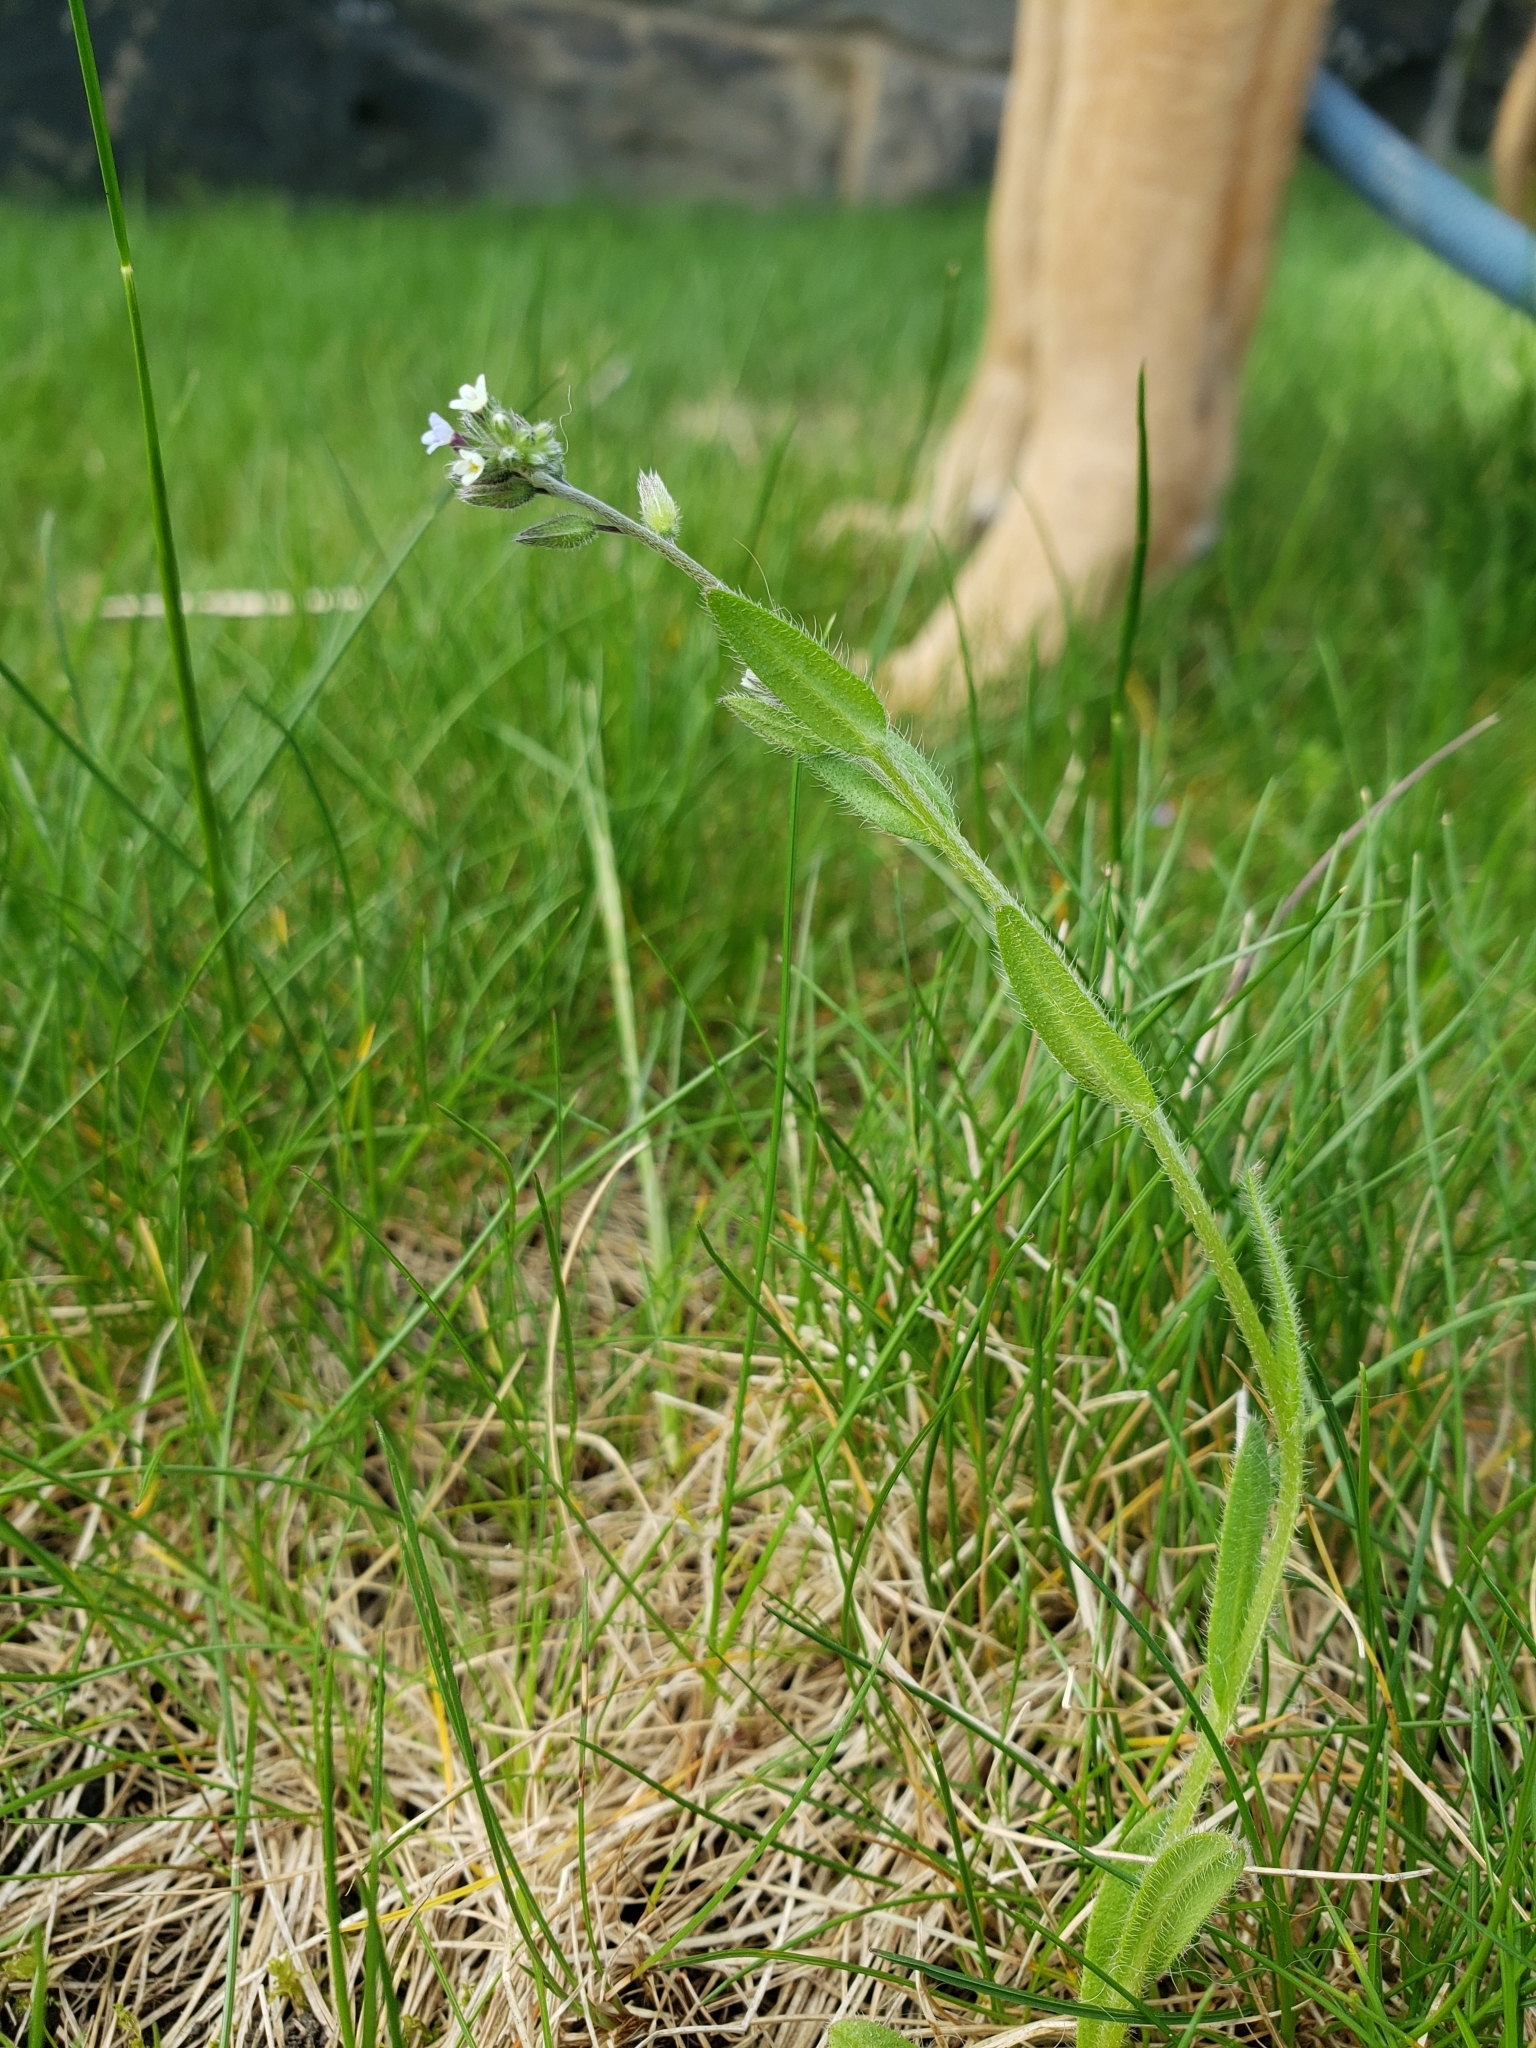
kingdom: Plantae
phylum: Tracheophyta
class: Magnoliopsida
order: Boraginales
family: Boraginaceae
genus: Myosotis
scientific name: Myosotis discolor
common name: Changing forget-me-not
